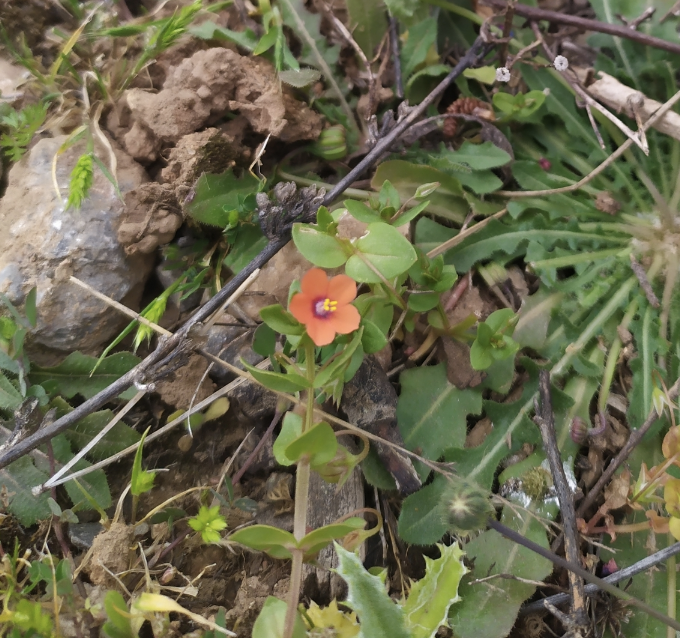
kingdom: Plantae
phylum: Tracheophyta
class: Magnoliopsida
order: Ericales
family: Primulaceae
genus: Lysimachia
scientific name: Lysimachia arvensis
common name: Scarlet pimpernel
